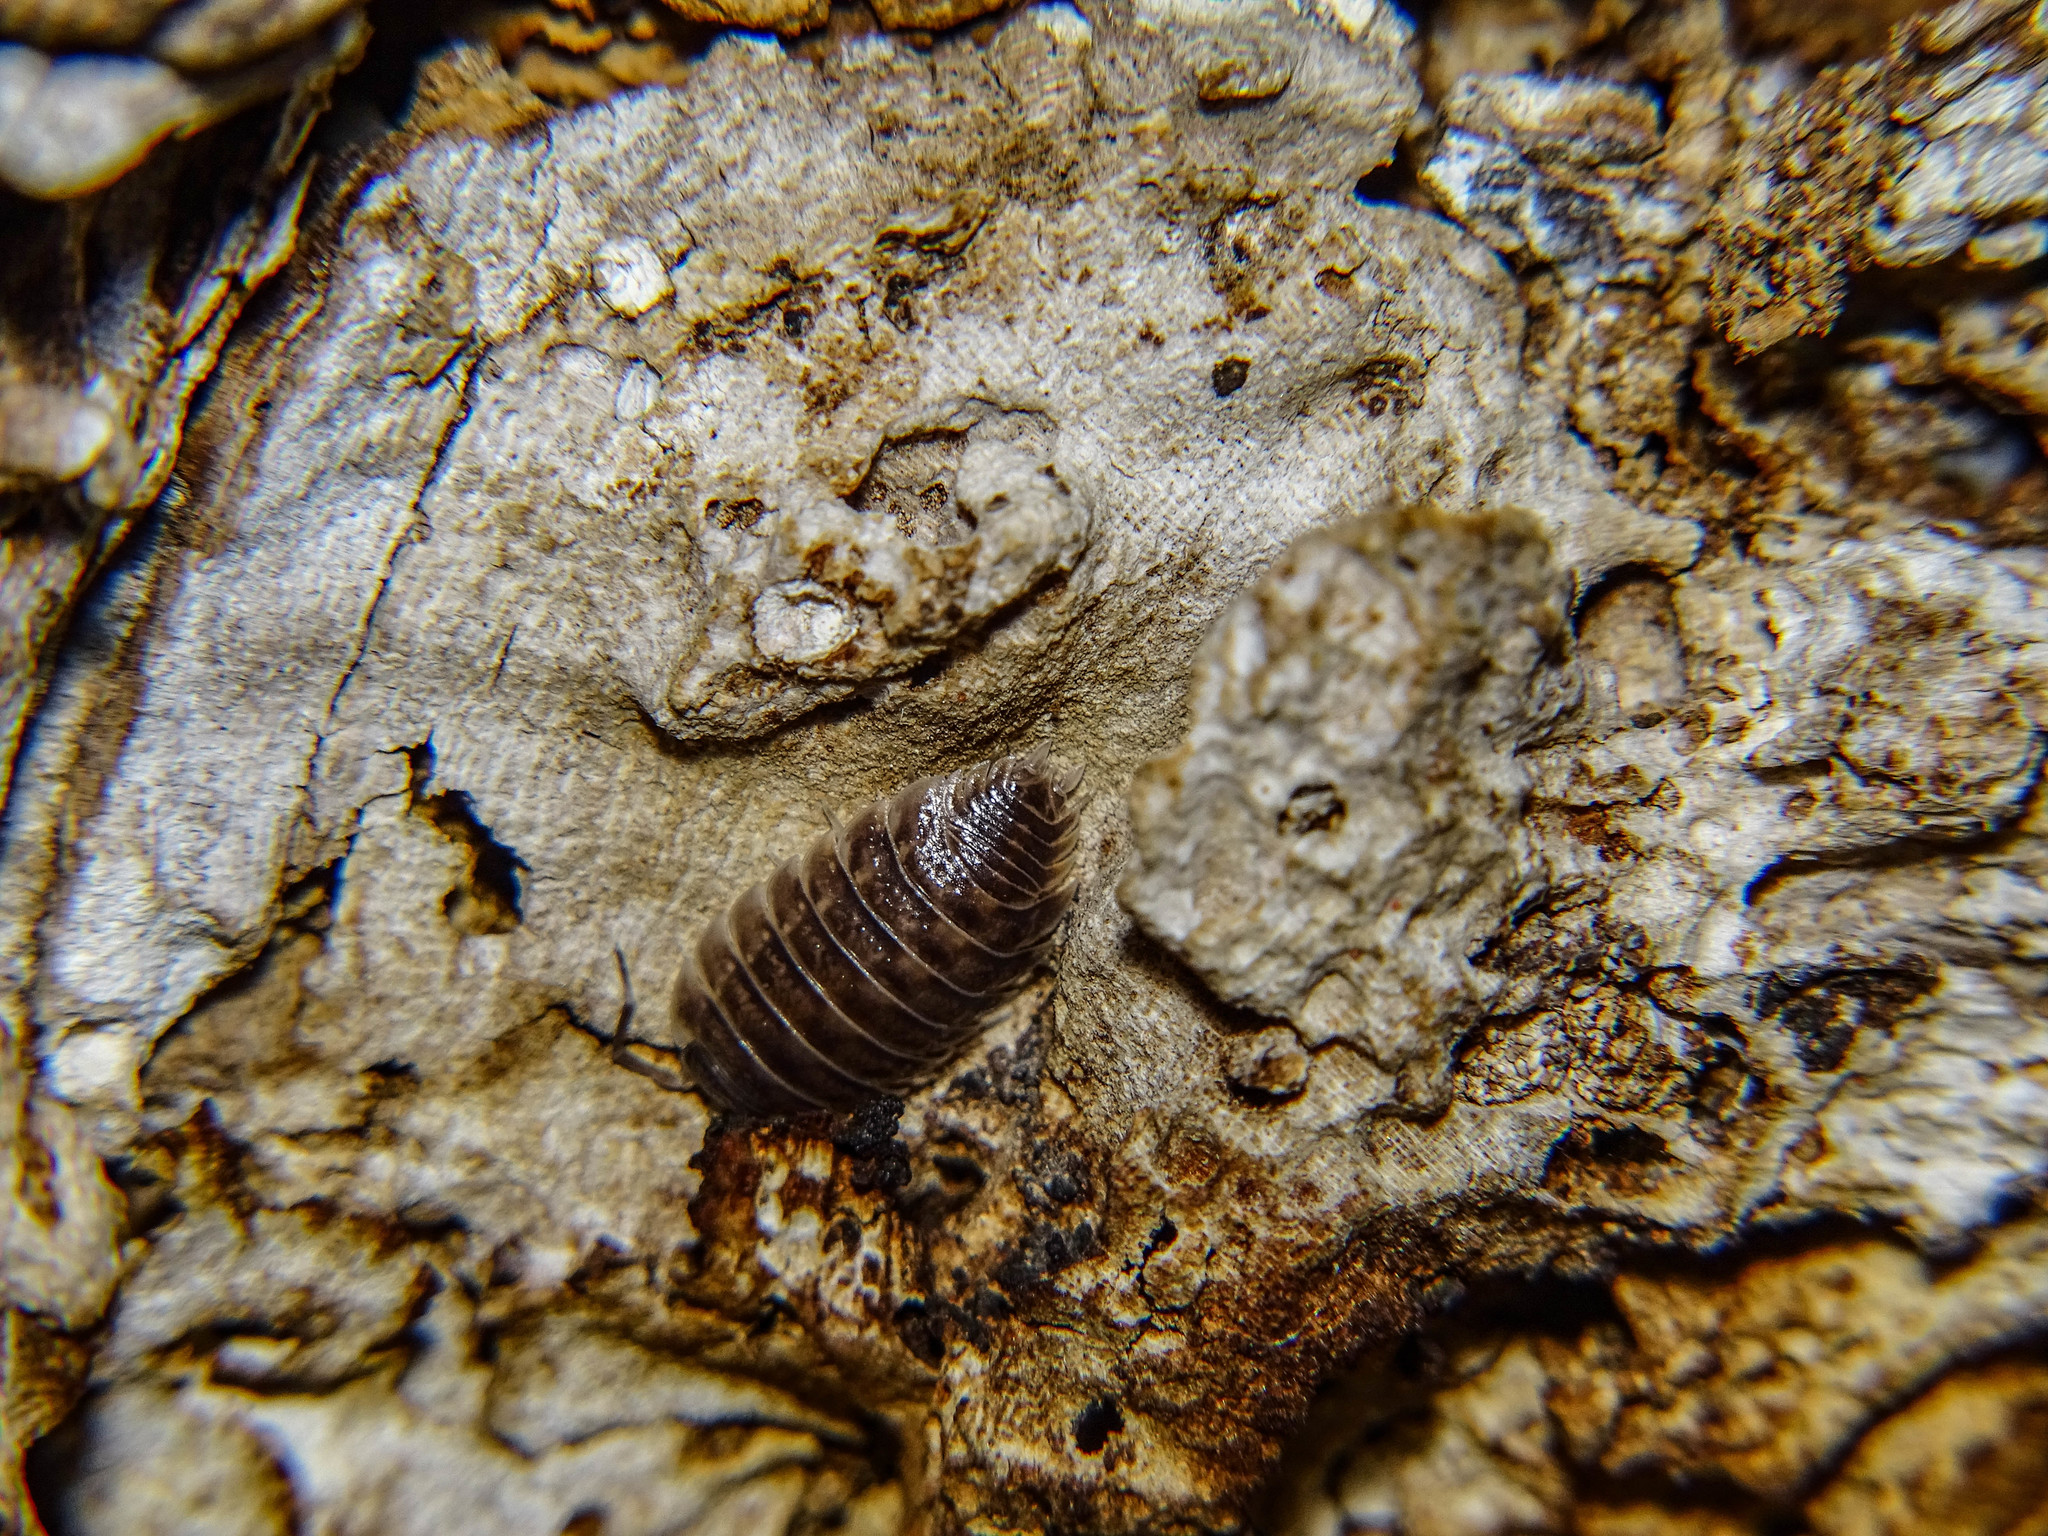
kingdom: Animalia
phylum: Arthropoda
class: Malacostraca
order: Isopoda
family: Porcellionidae
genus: Porcellio
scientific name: Porcellio obsoletus
